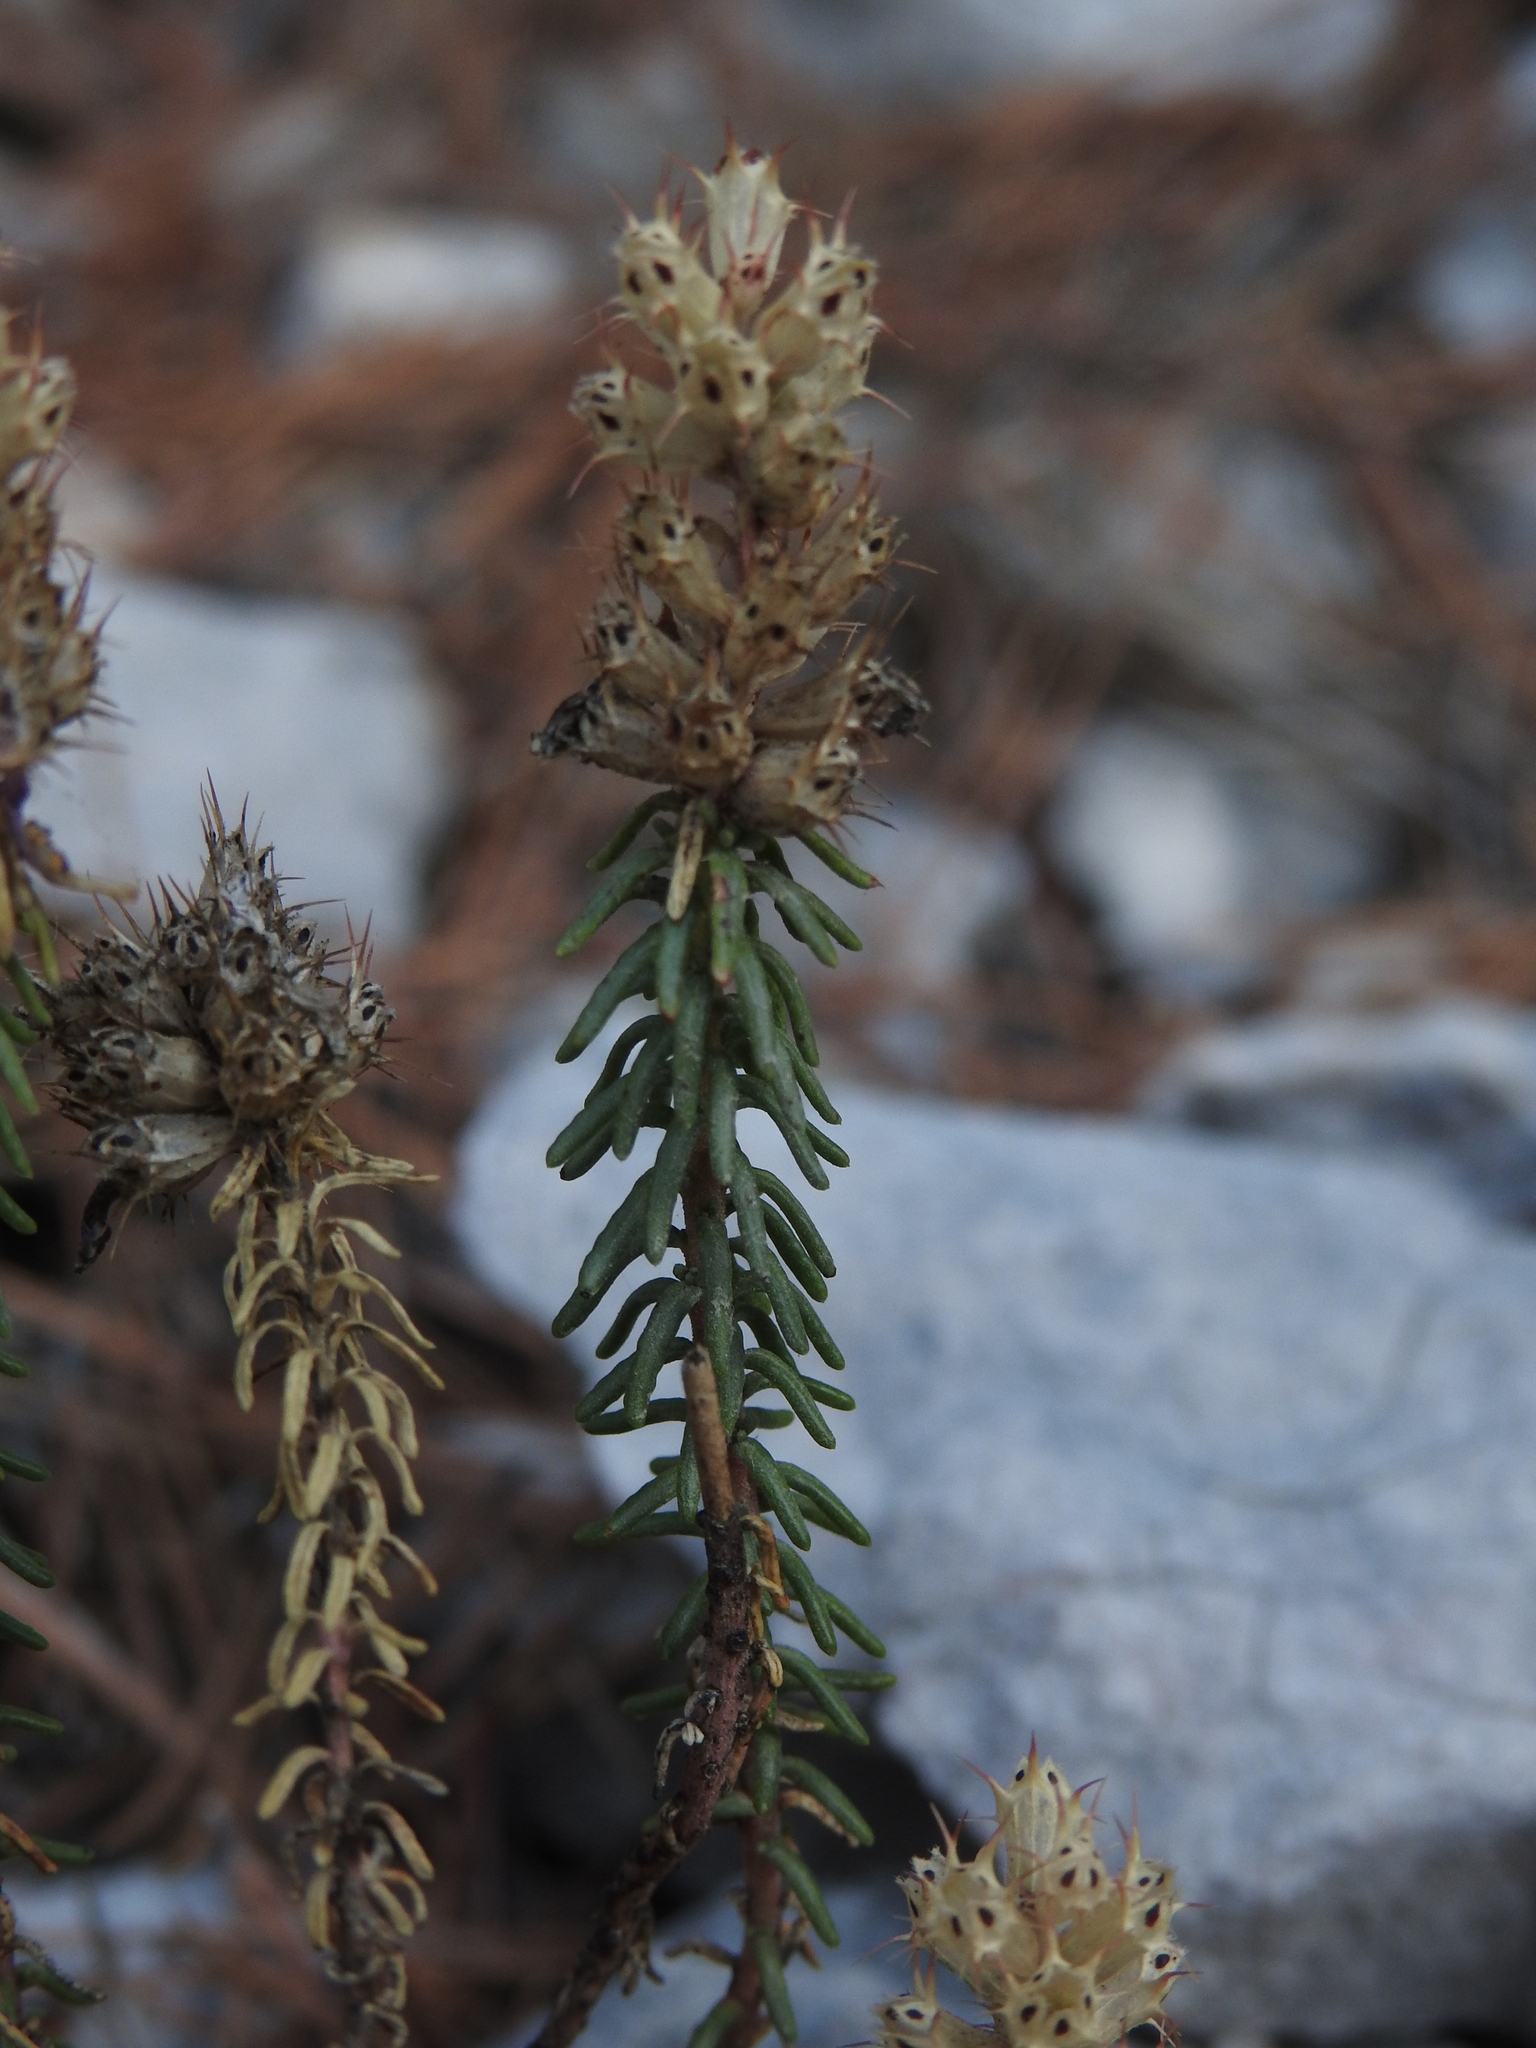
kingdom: Plantae
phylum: Tracheophyta
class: Magnoliopsida
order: Ericales
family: Primulaceae
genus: Coris
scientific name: Coris monspeliensis
